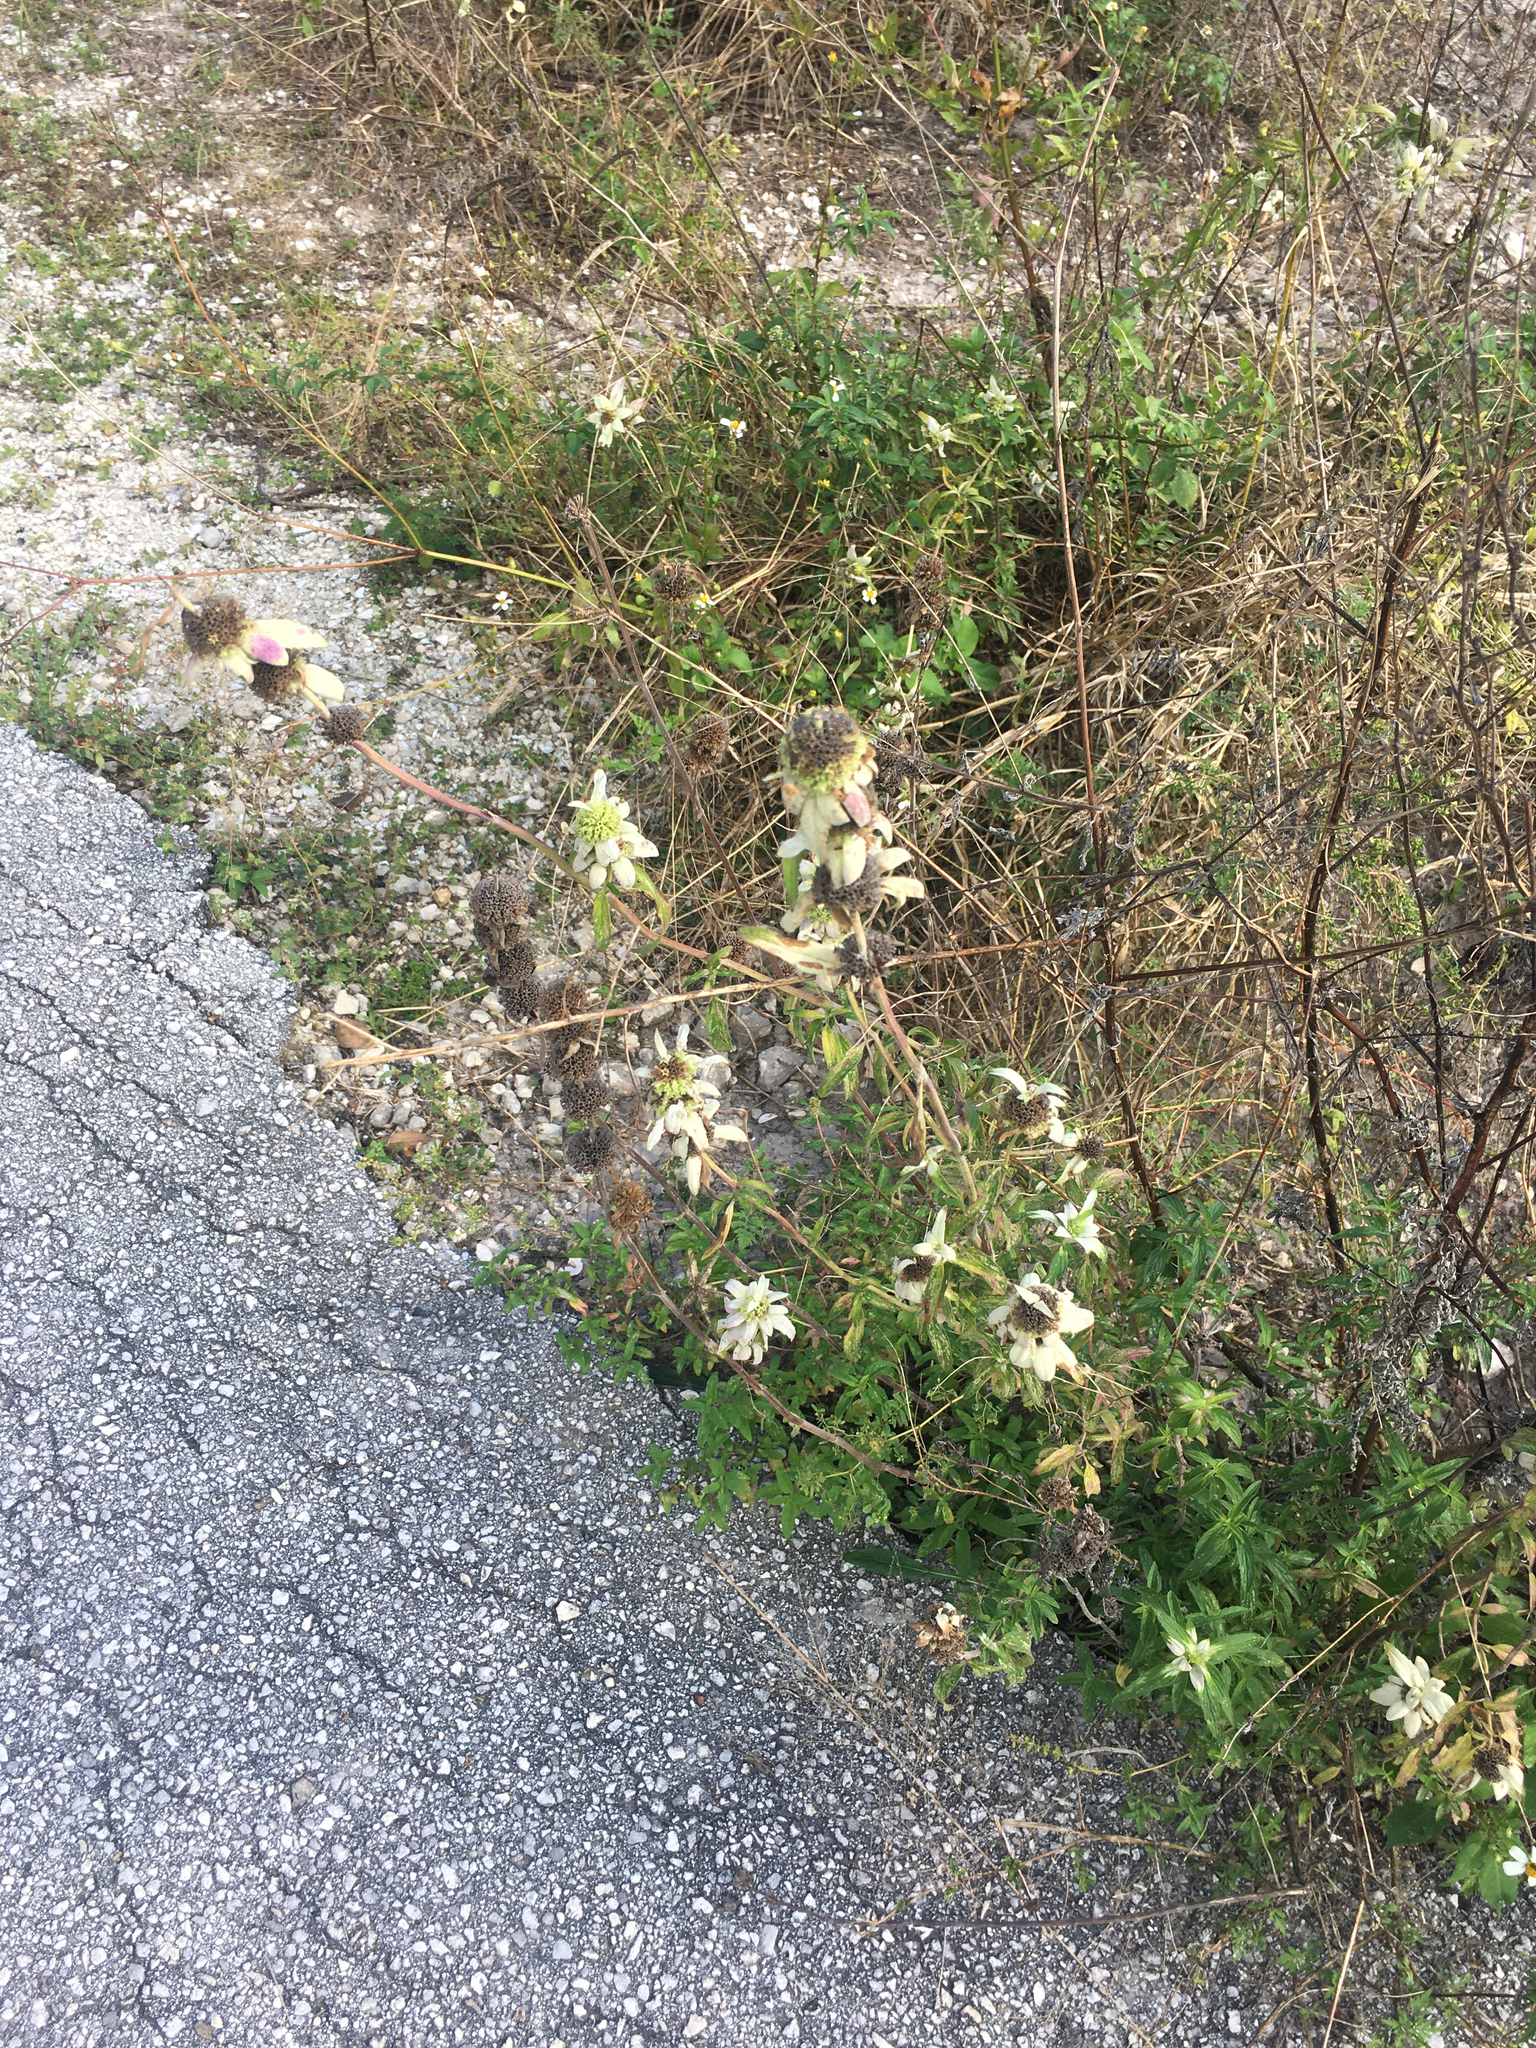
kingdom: Plantae
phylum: Tracheophyta
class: Magnoliopsida
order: Lamiales
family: Lamiaceae
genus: Monarda
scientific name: Monarda punctata
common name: Dotted monarda
